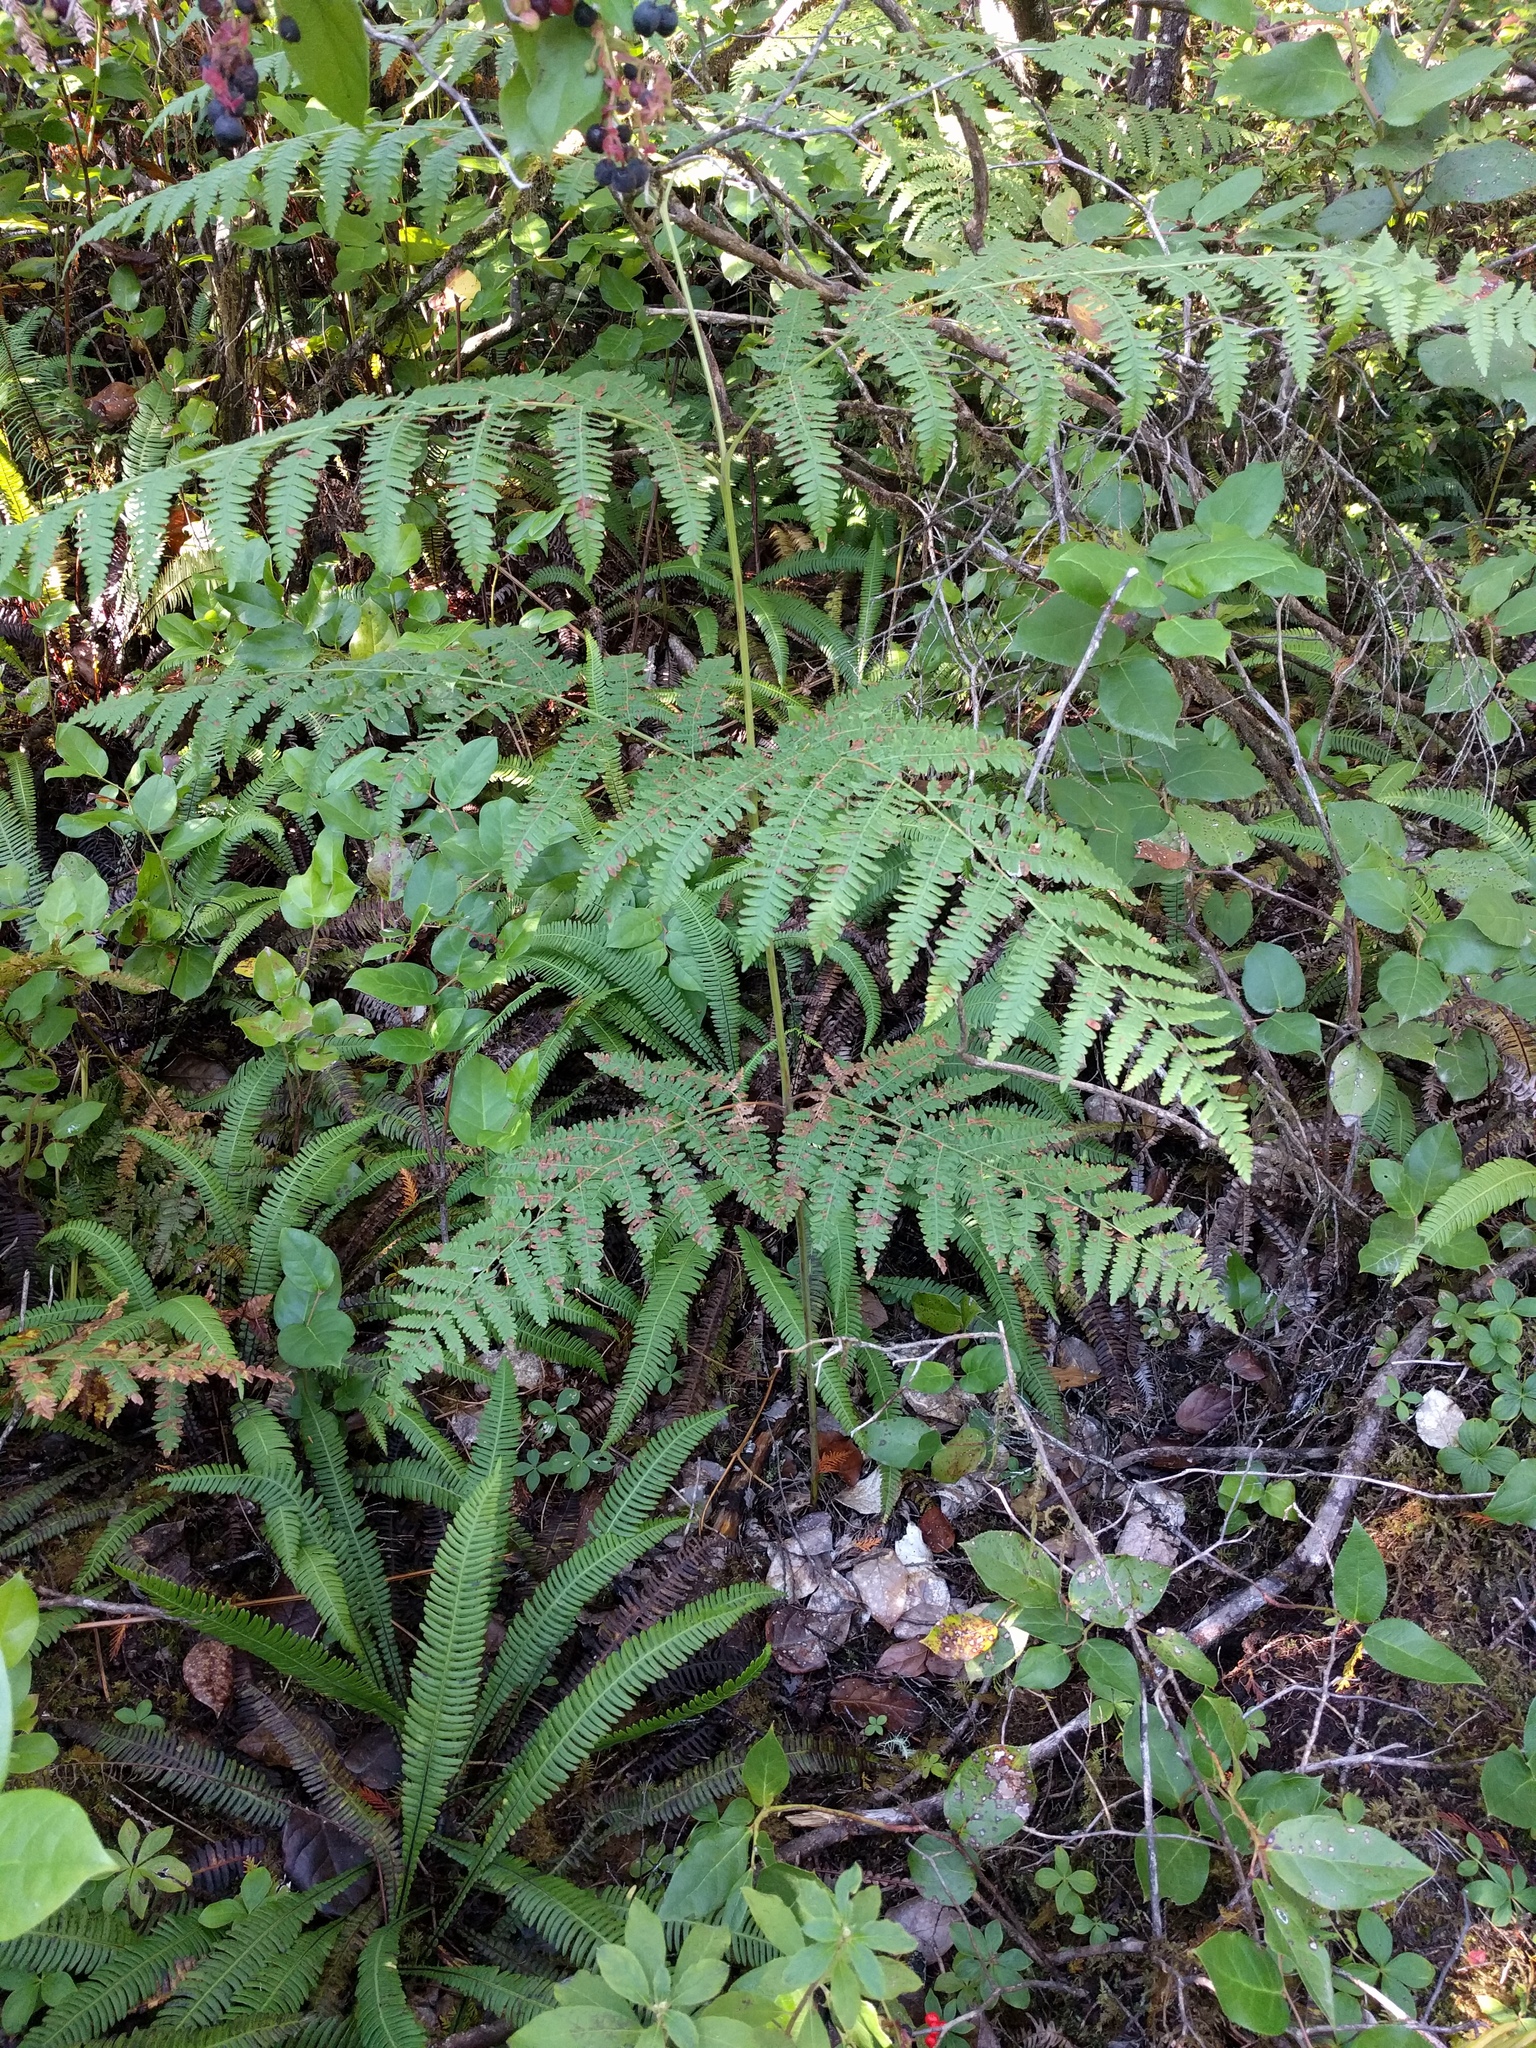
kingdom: Plantae
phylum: Tracheophyta
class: Polypodiopsida
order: Polypodiales
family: Dennstaedtiaceae
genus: Pteridium
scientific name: Pteridium aquilinum
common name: Bracken
